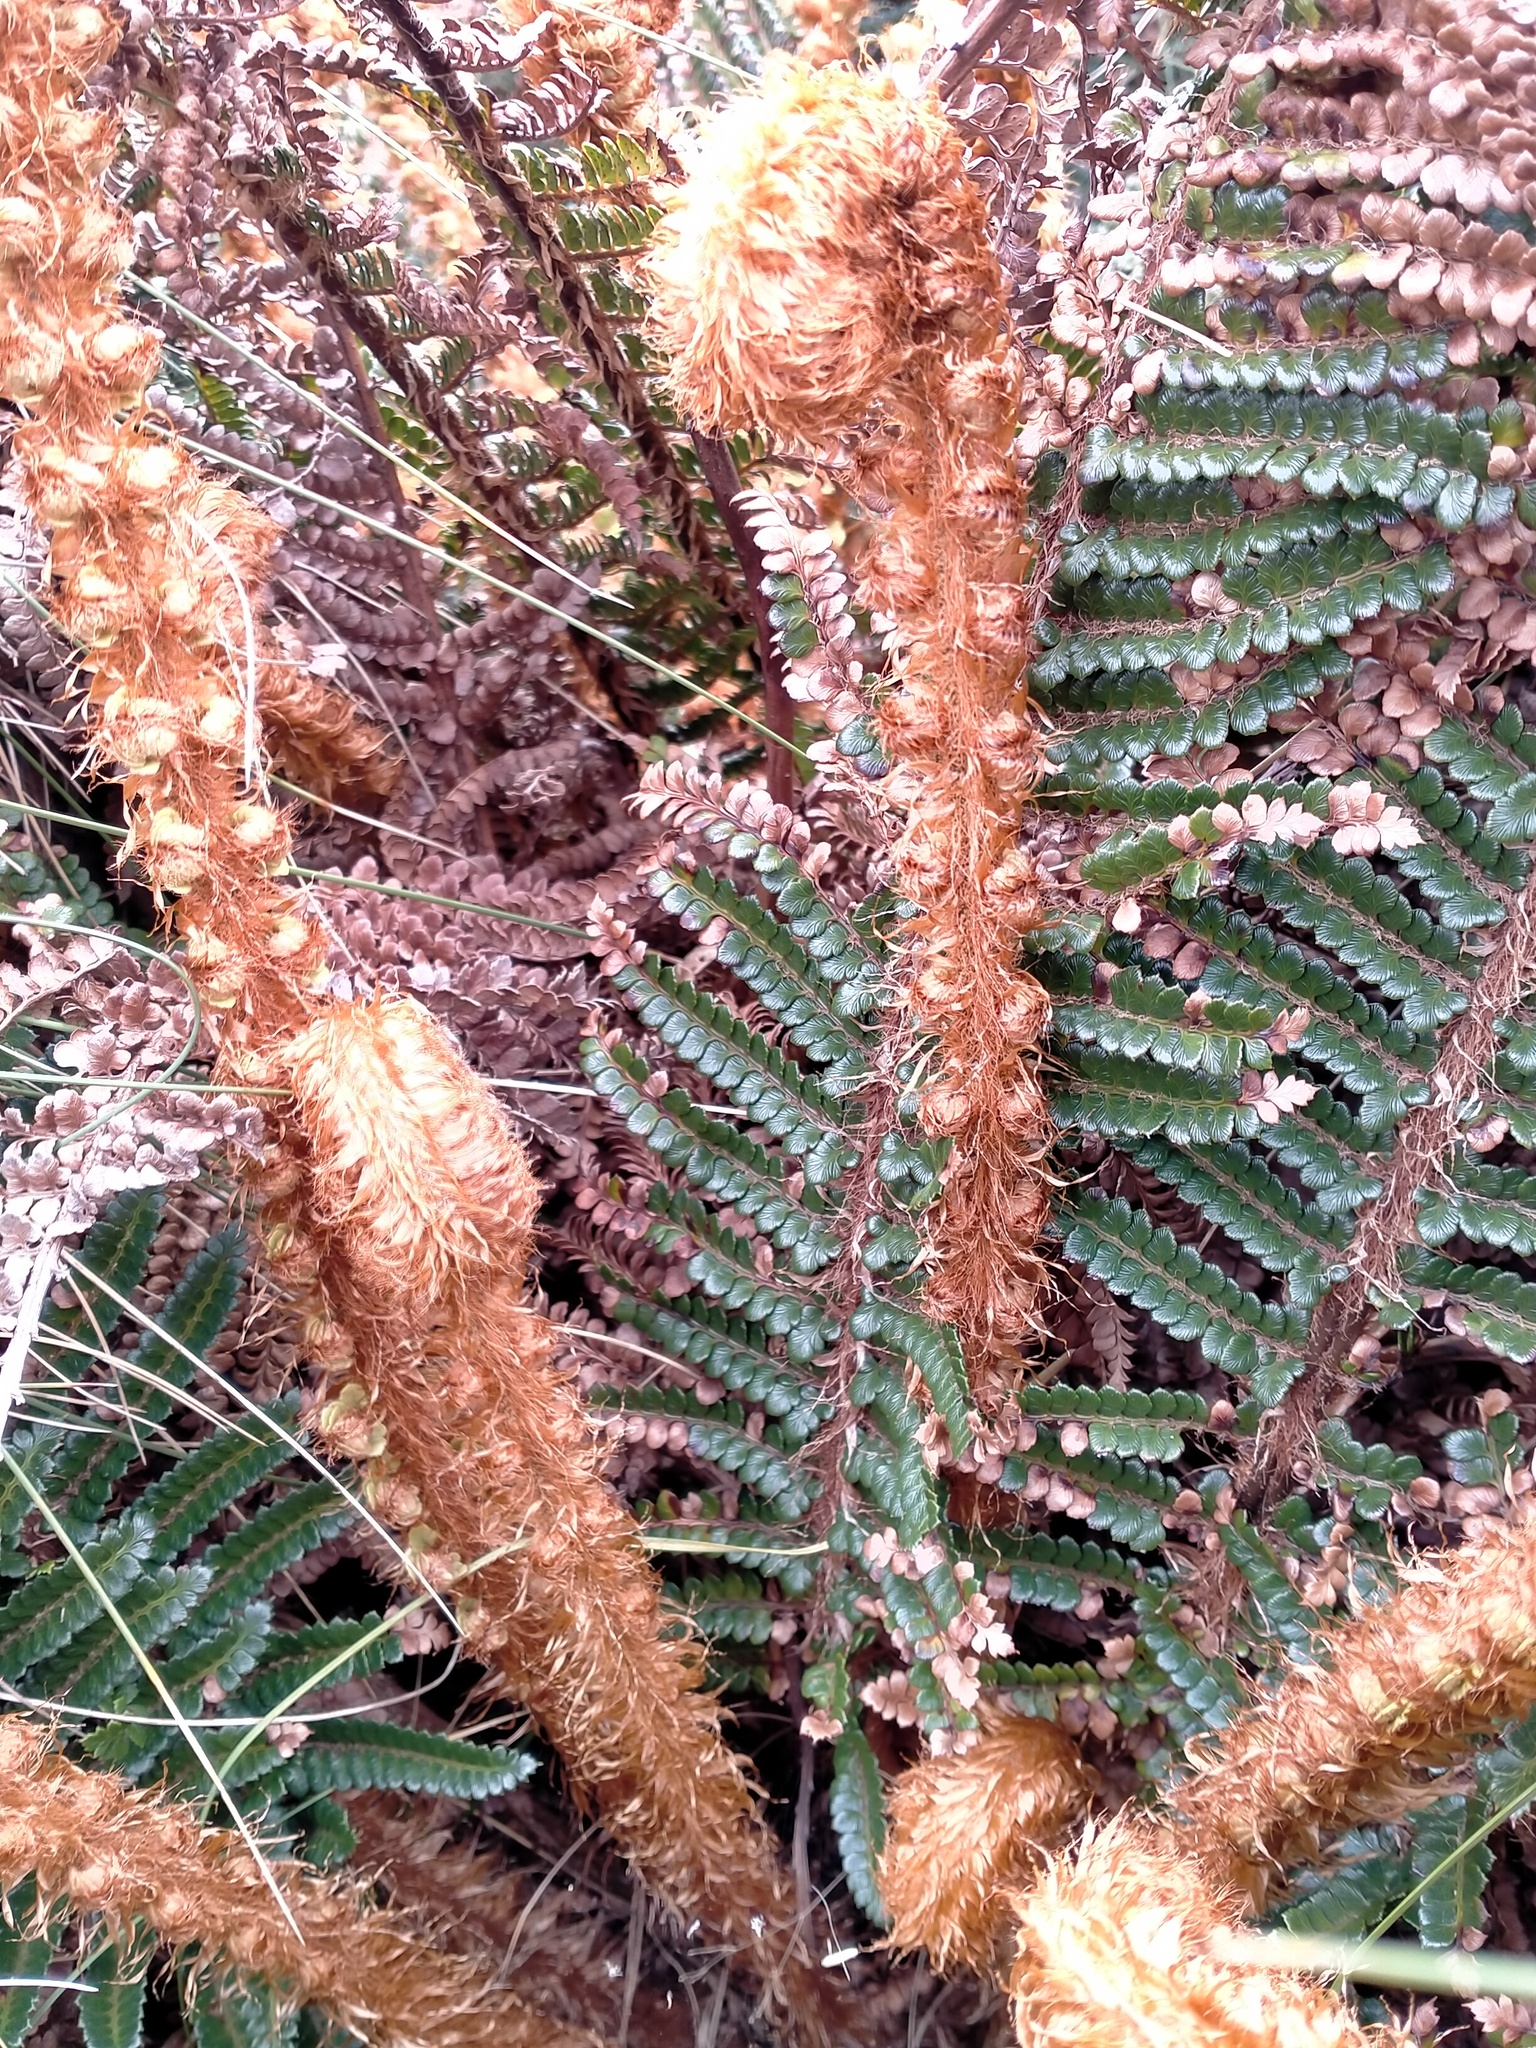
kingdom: Plantae
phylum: Tracheophyta
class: Polypodiopsida
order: Polypodiales
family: Dryopteridaceae
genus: Polystichum
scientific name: Polystichum vestitum
